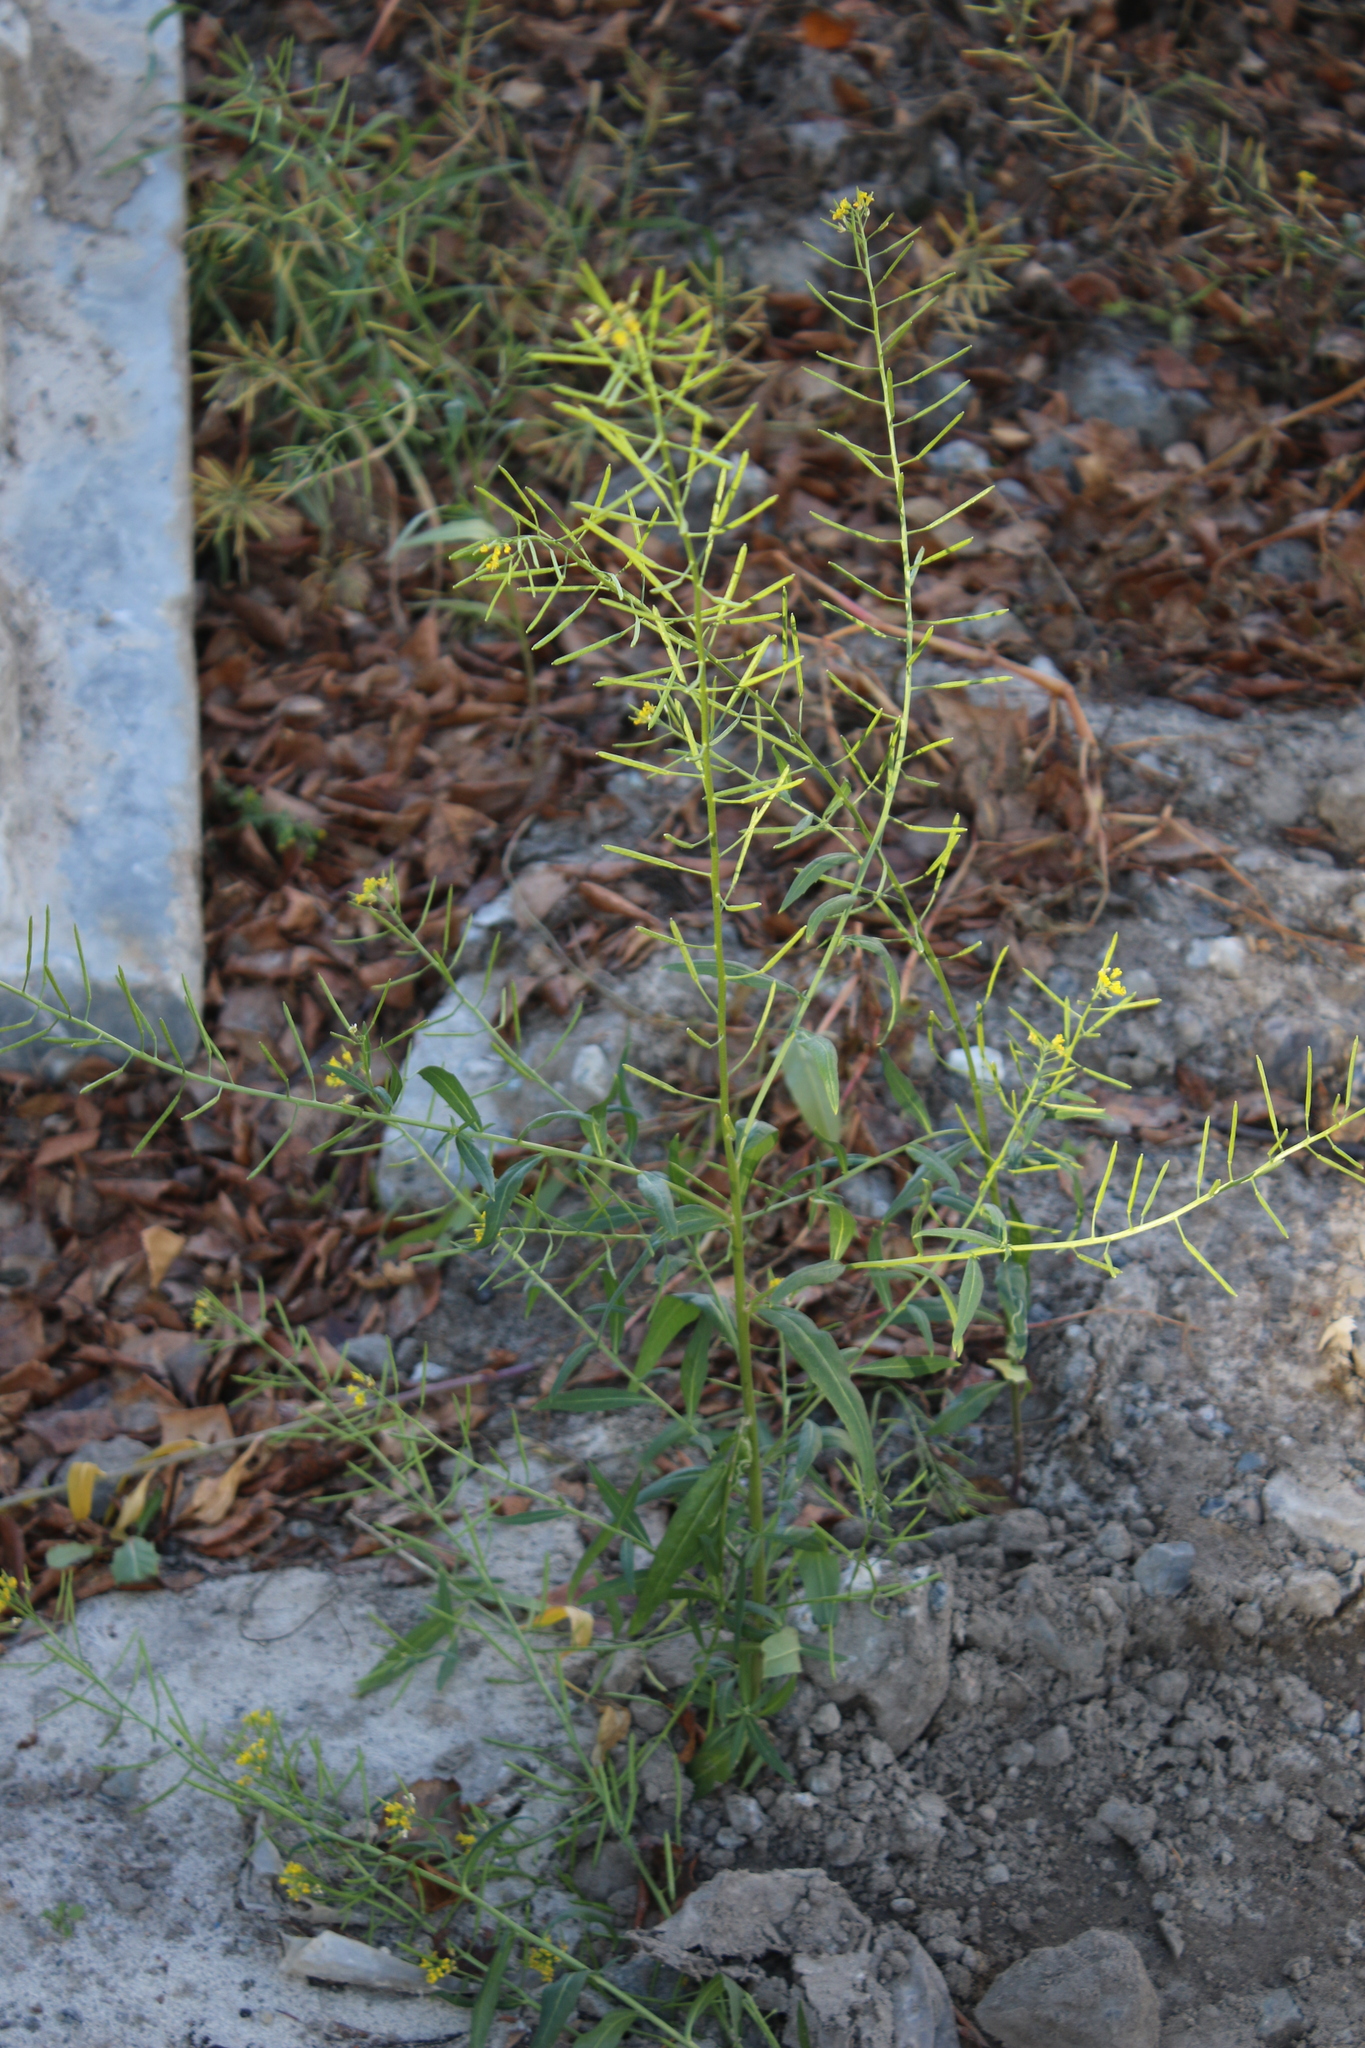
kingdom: Plantae
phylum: Tracheophyta
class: Magnoliopsida
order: Brassicales
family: Brassicaceae
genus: Erysimum
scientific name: Erysimum cheiranthoides
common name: Treacle mustard
